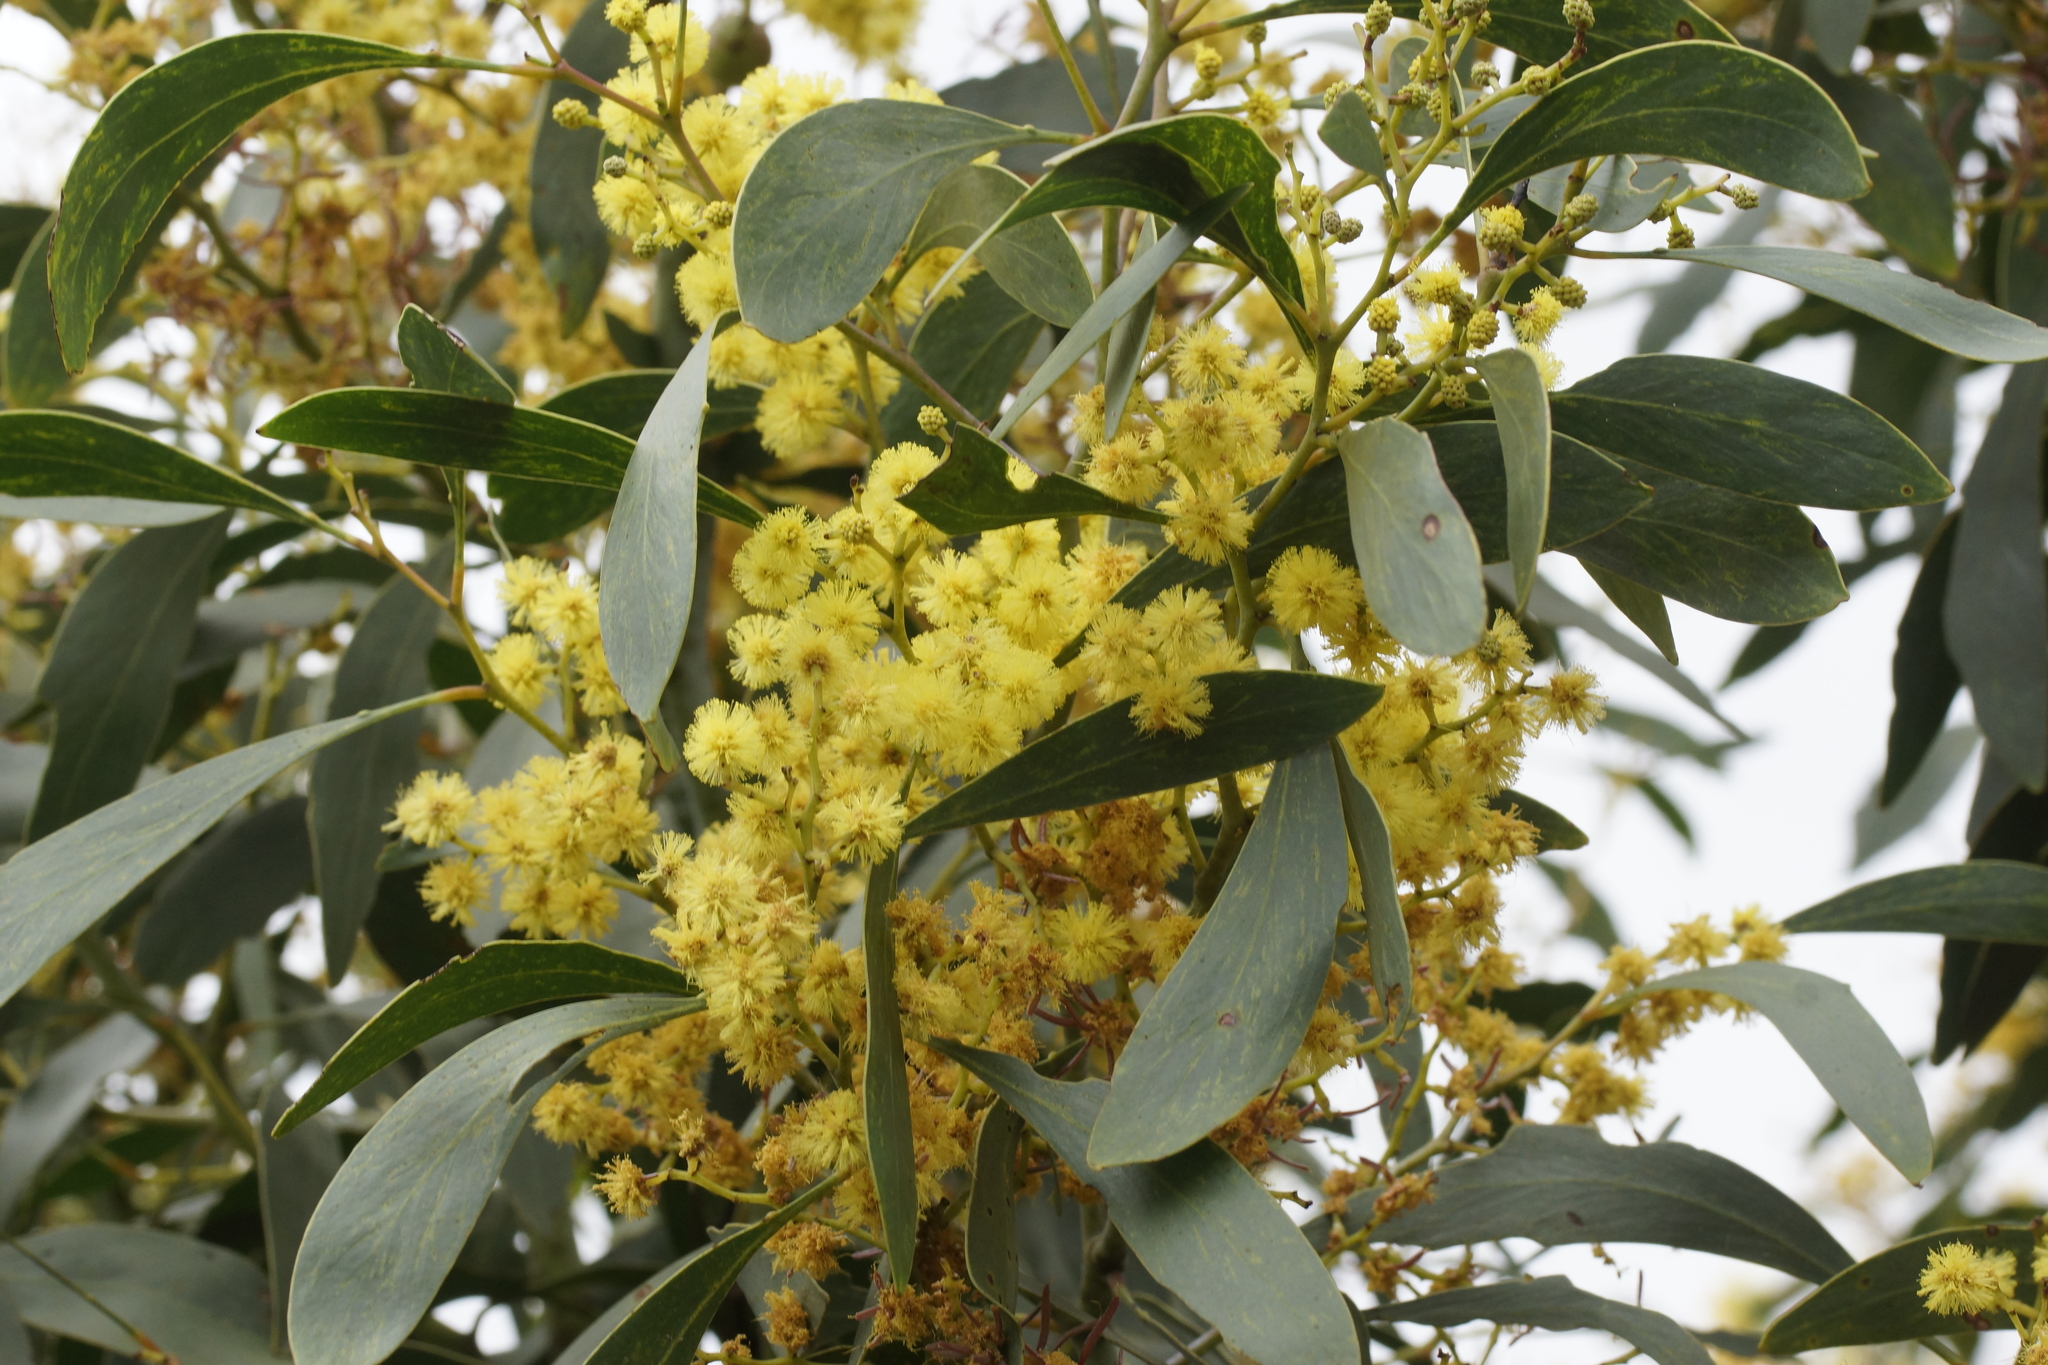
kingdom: Plantae
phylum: Tracheophyta
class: Magnoliopsida
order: Fabales
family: Fabaceae
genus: Acacia
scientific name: Acacia pycnantha
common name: Golden wattle
